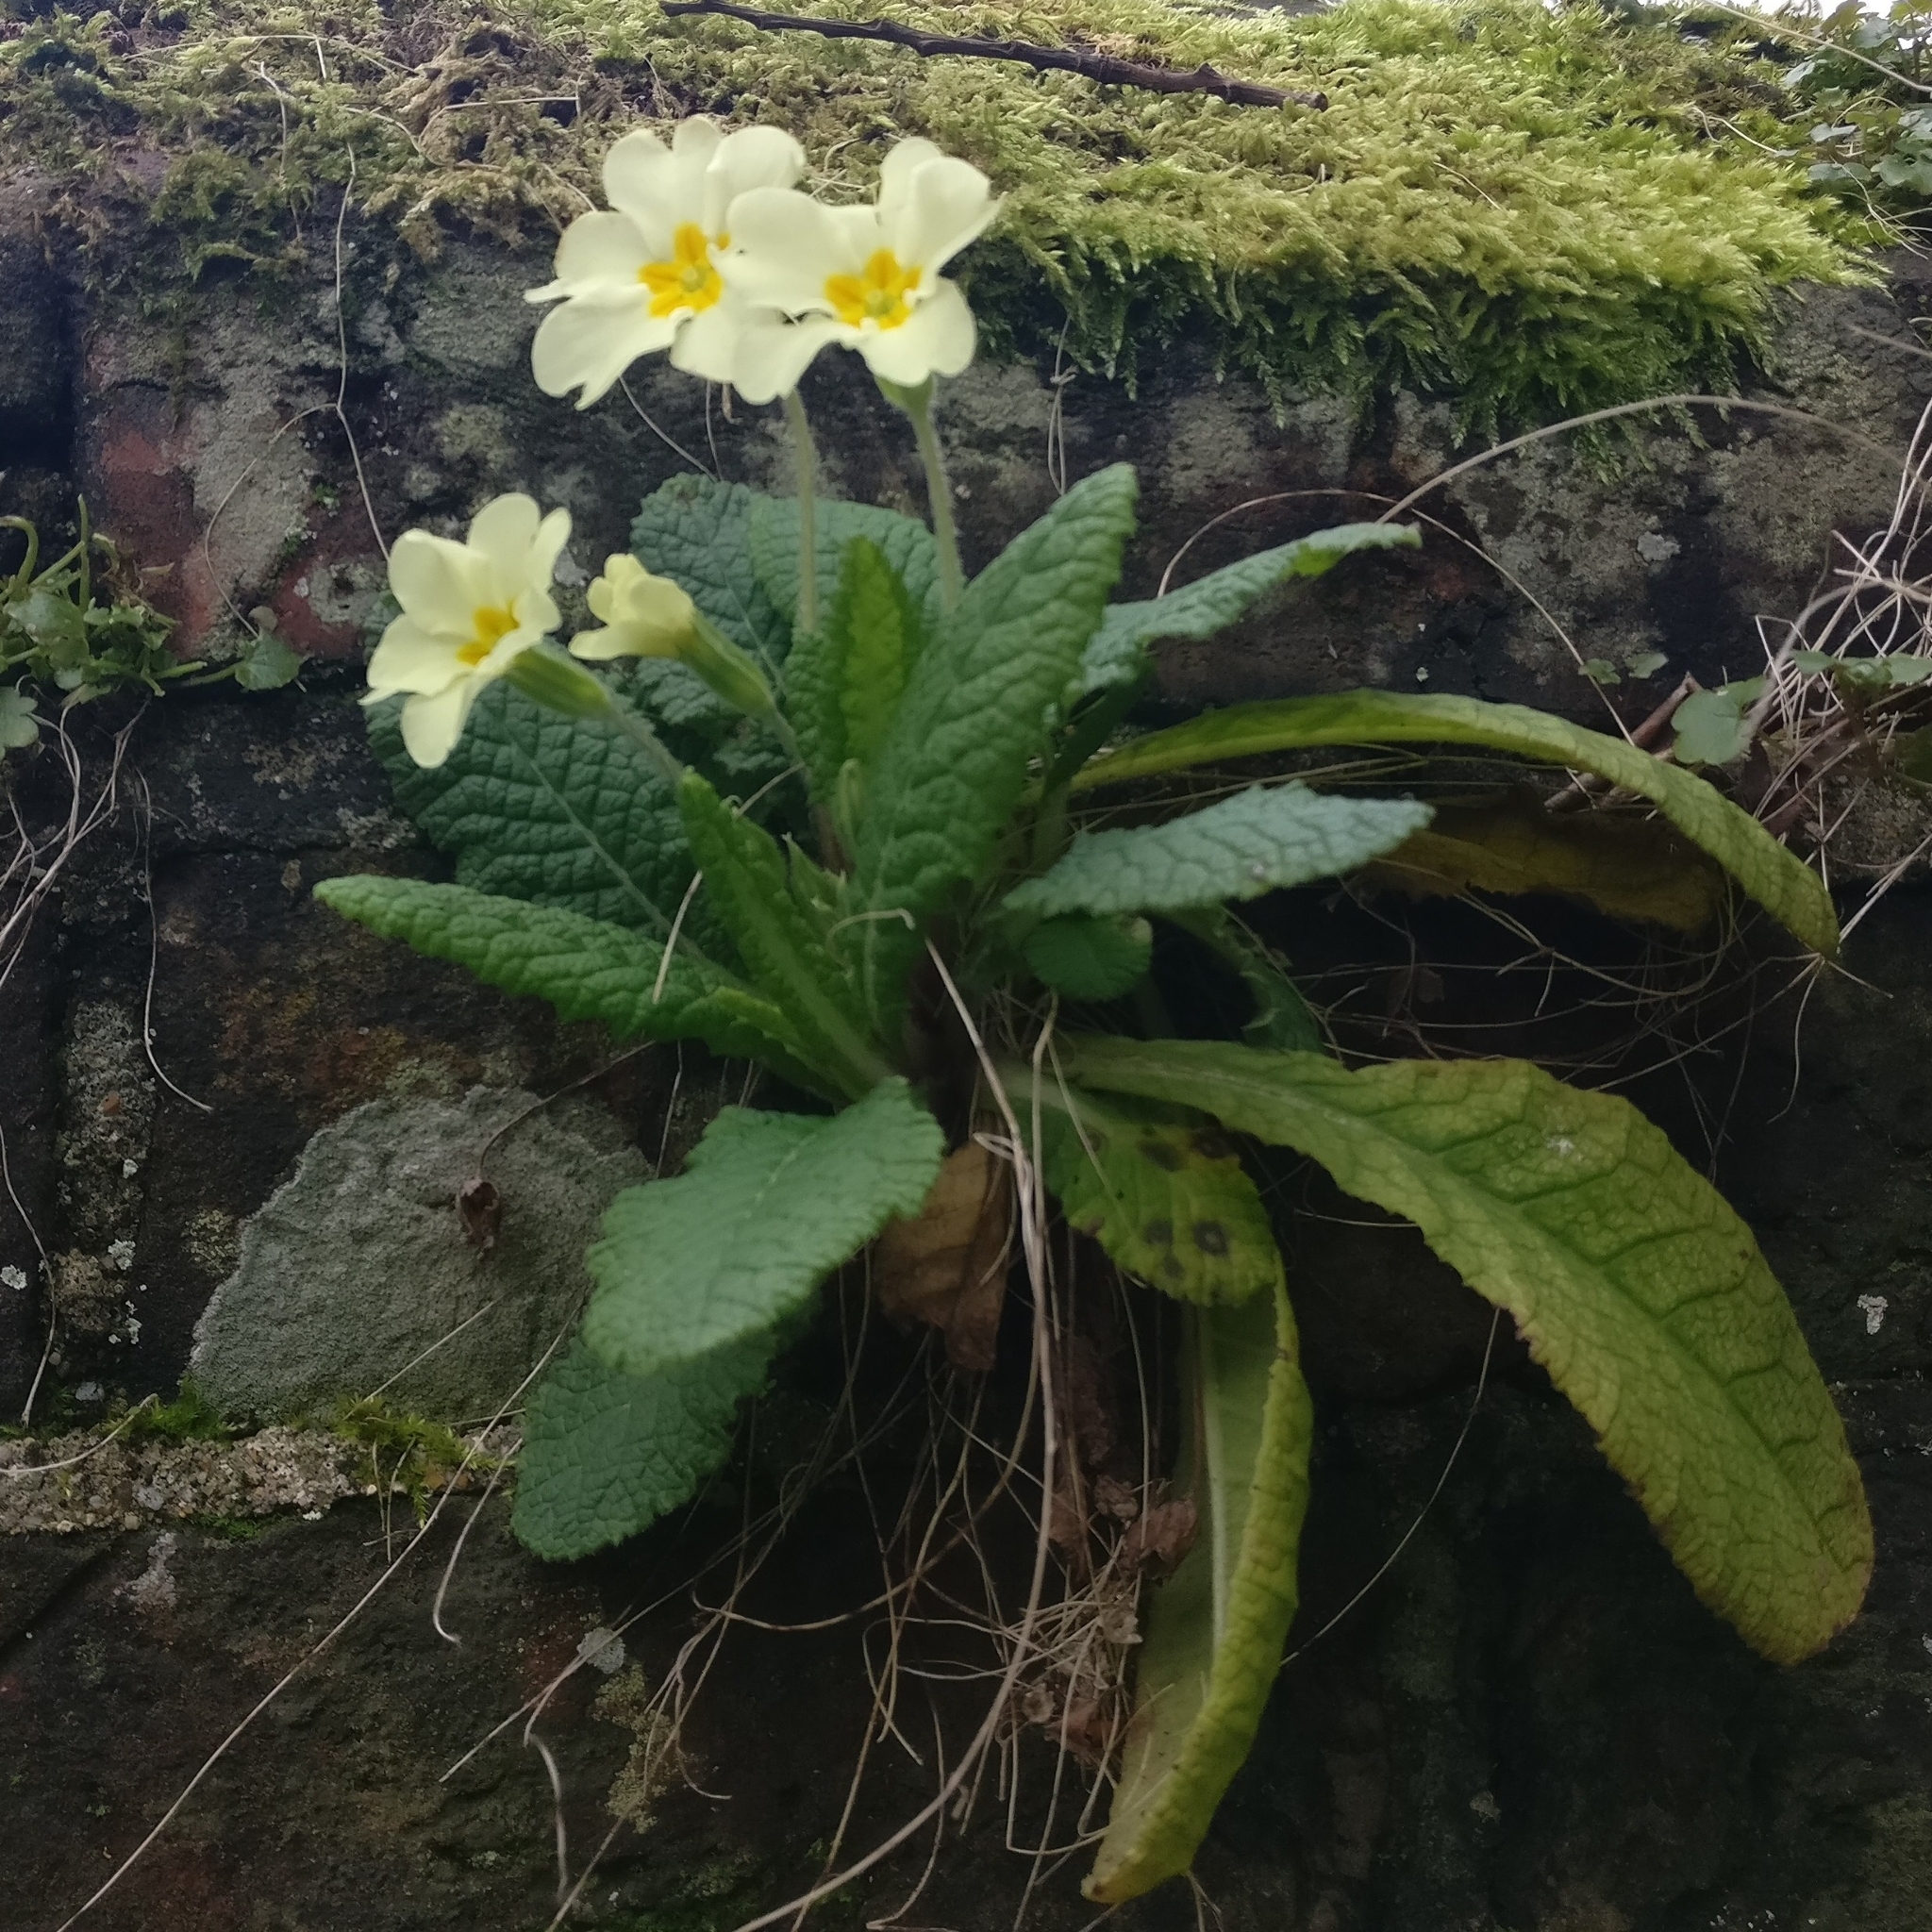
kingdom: Plantae
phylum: Tracheophyta
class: Magnoliopsida
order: Ericales
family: Primulaceae
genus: Primula
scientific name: Primula vulgaris
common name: Primrose
